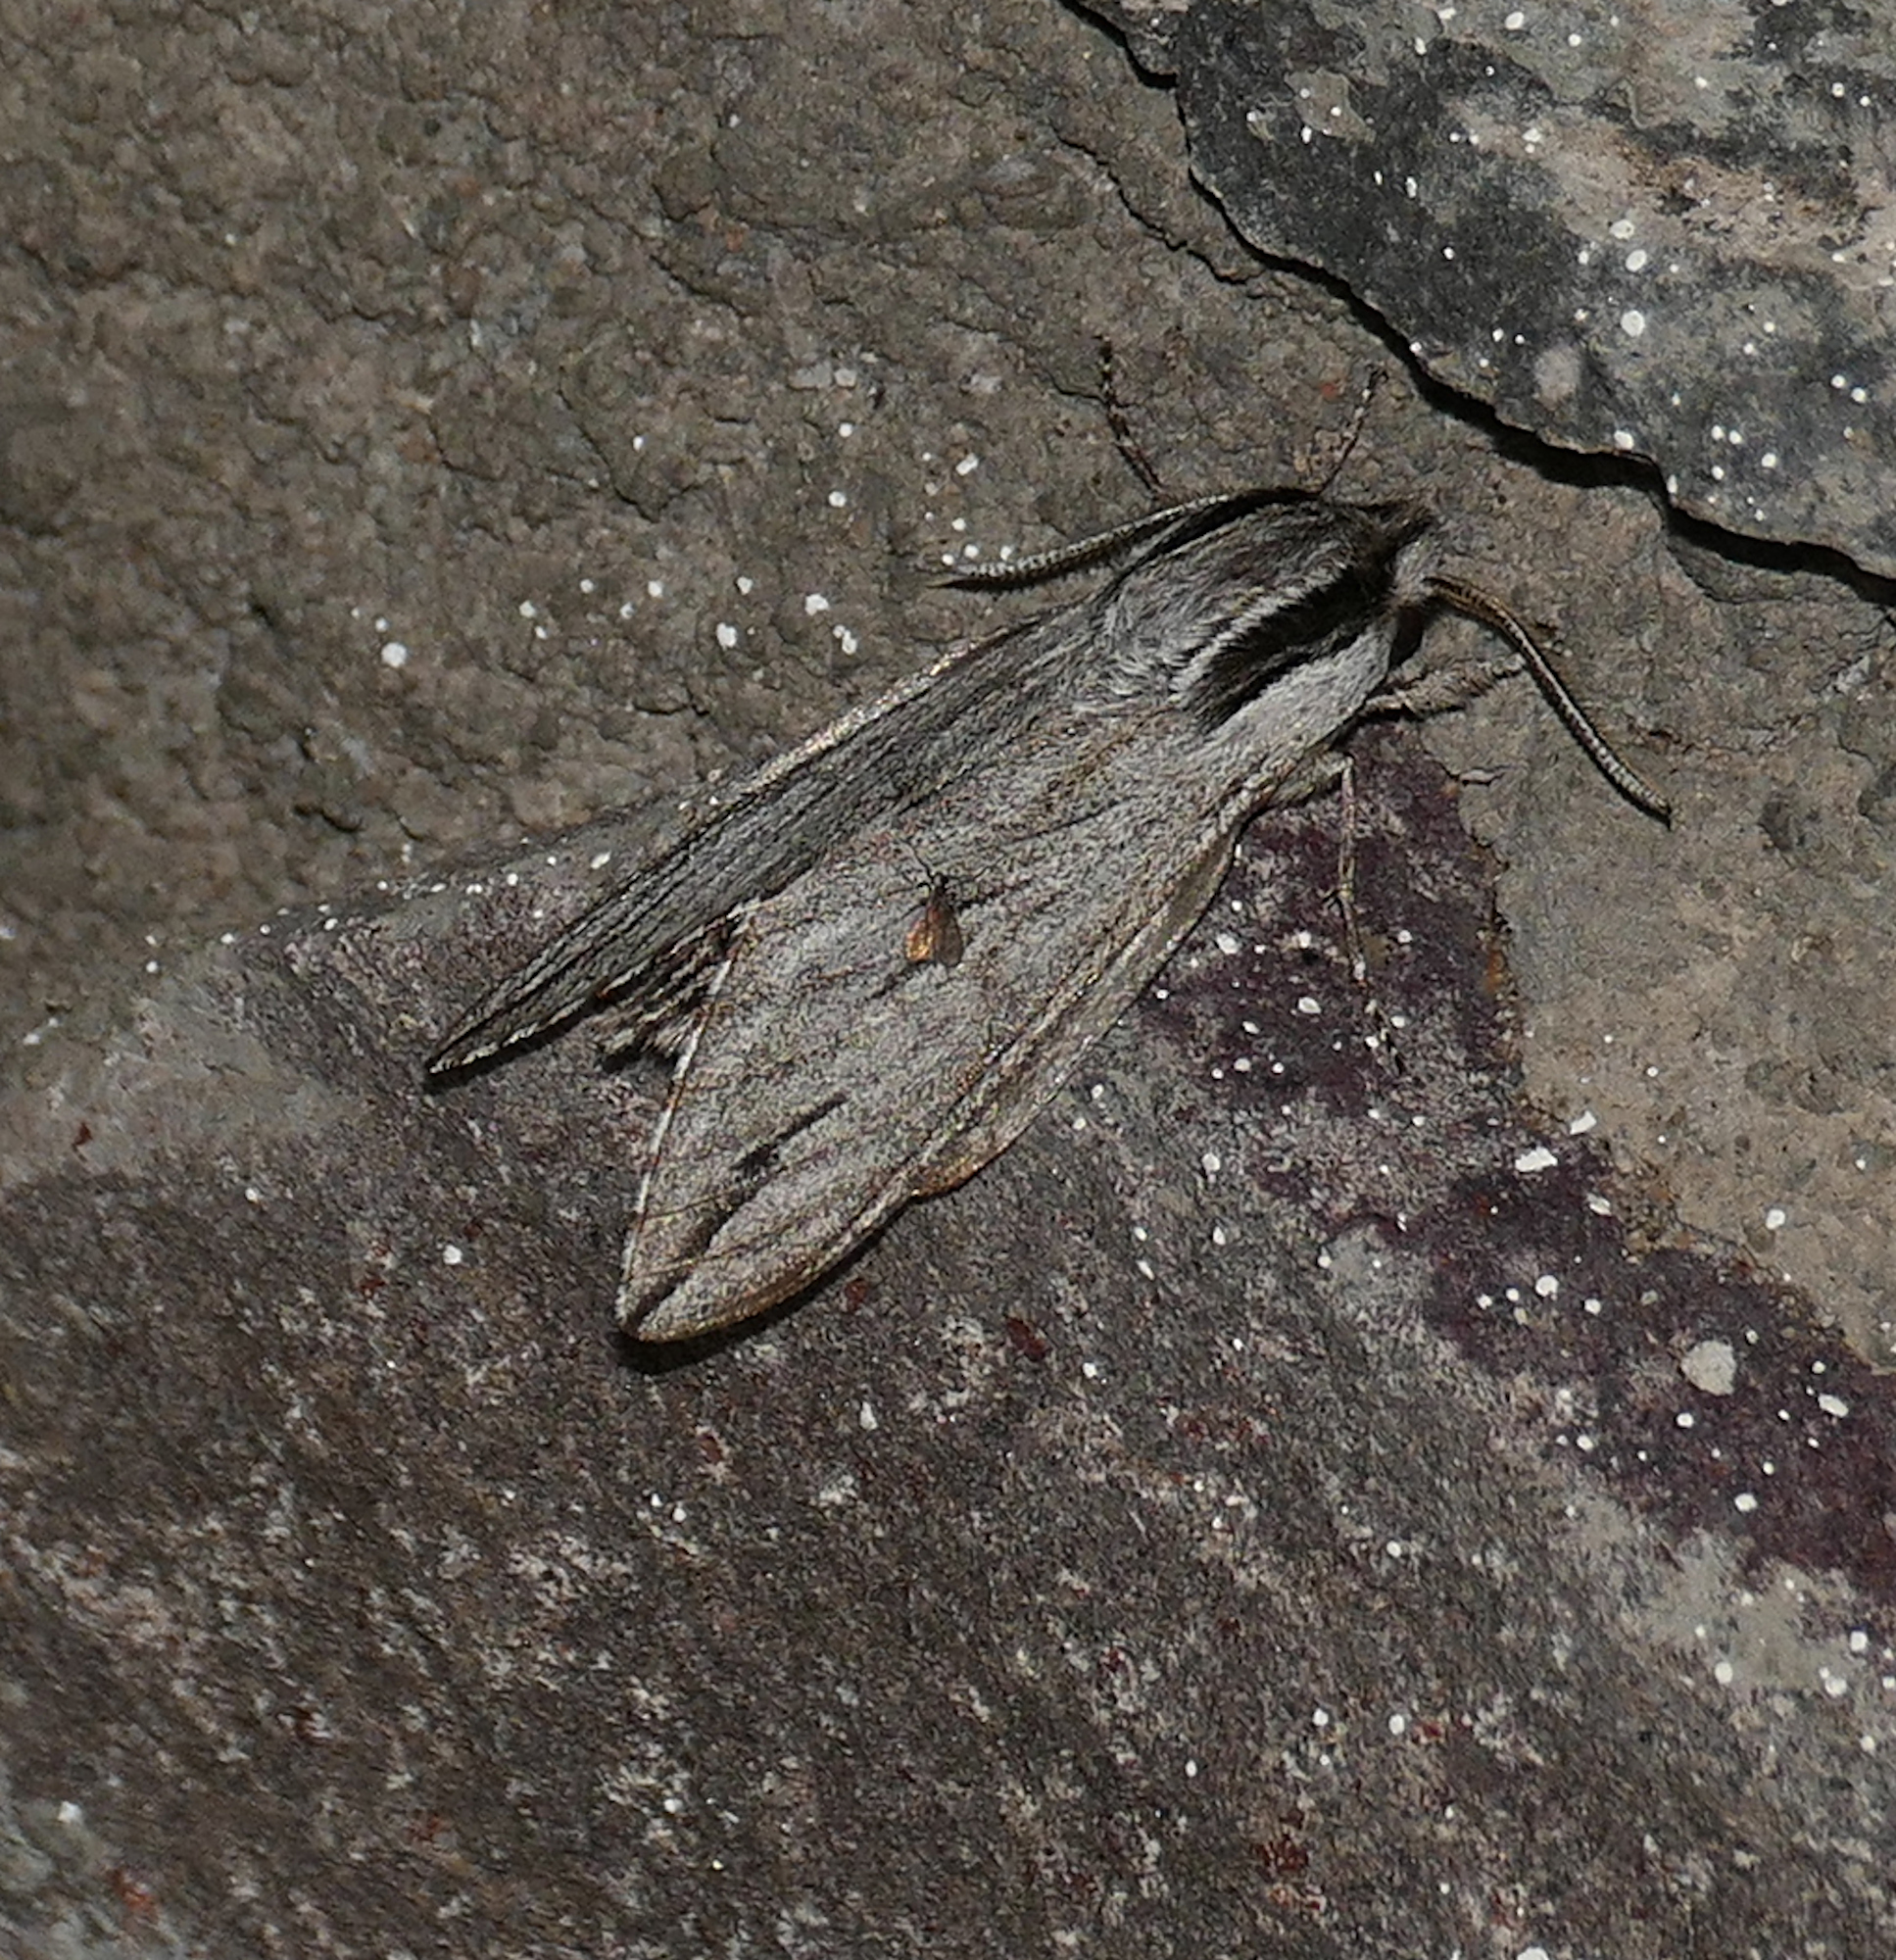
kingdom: Animalia
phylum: Arthropoda
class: Insecta
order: Lepidoptera
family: Sphingidae
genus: Sphinx
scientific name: Sphinx dollii
